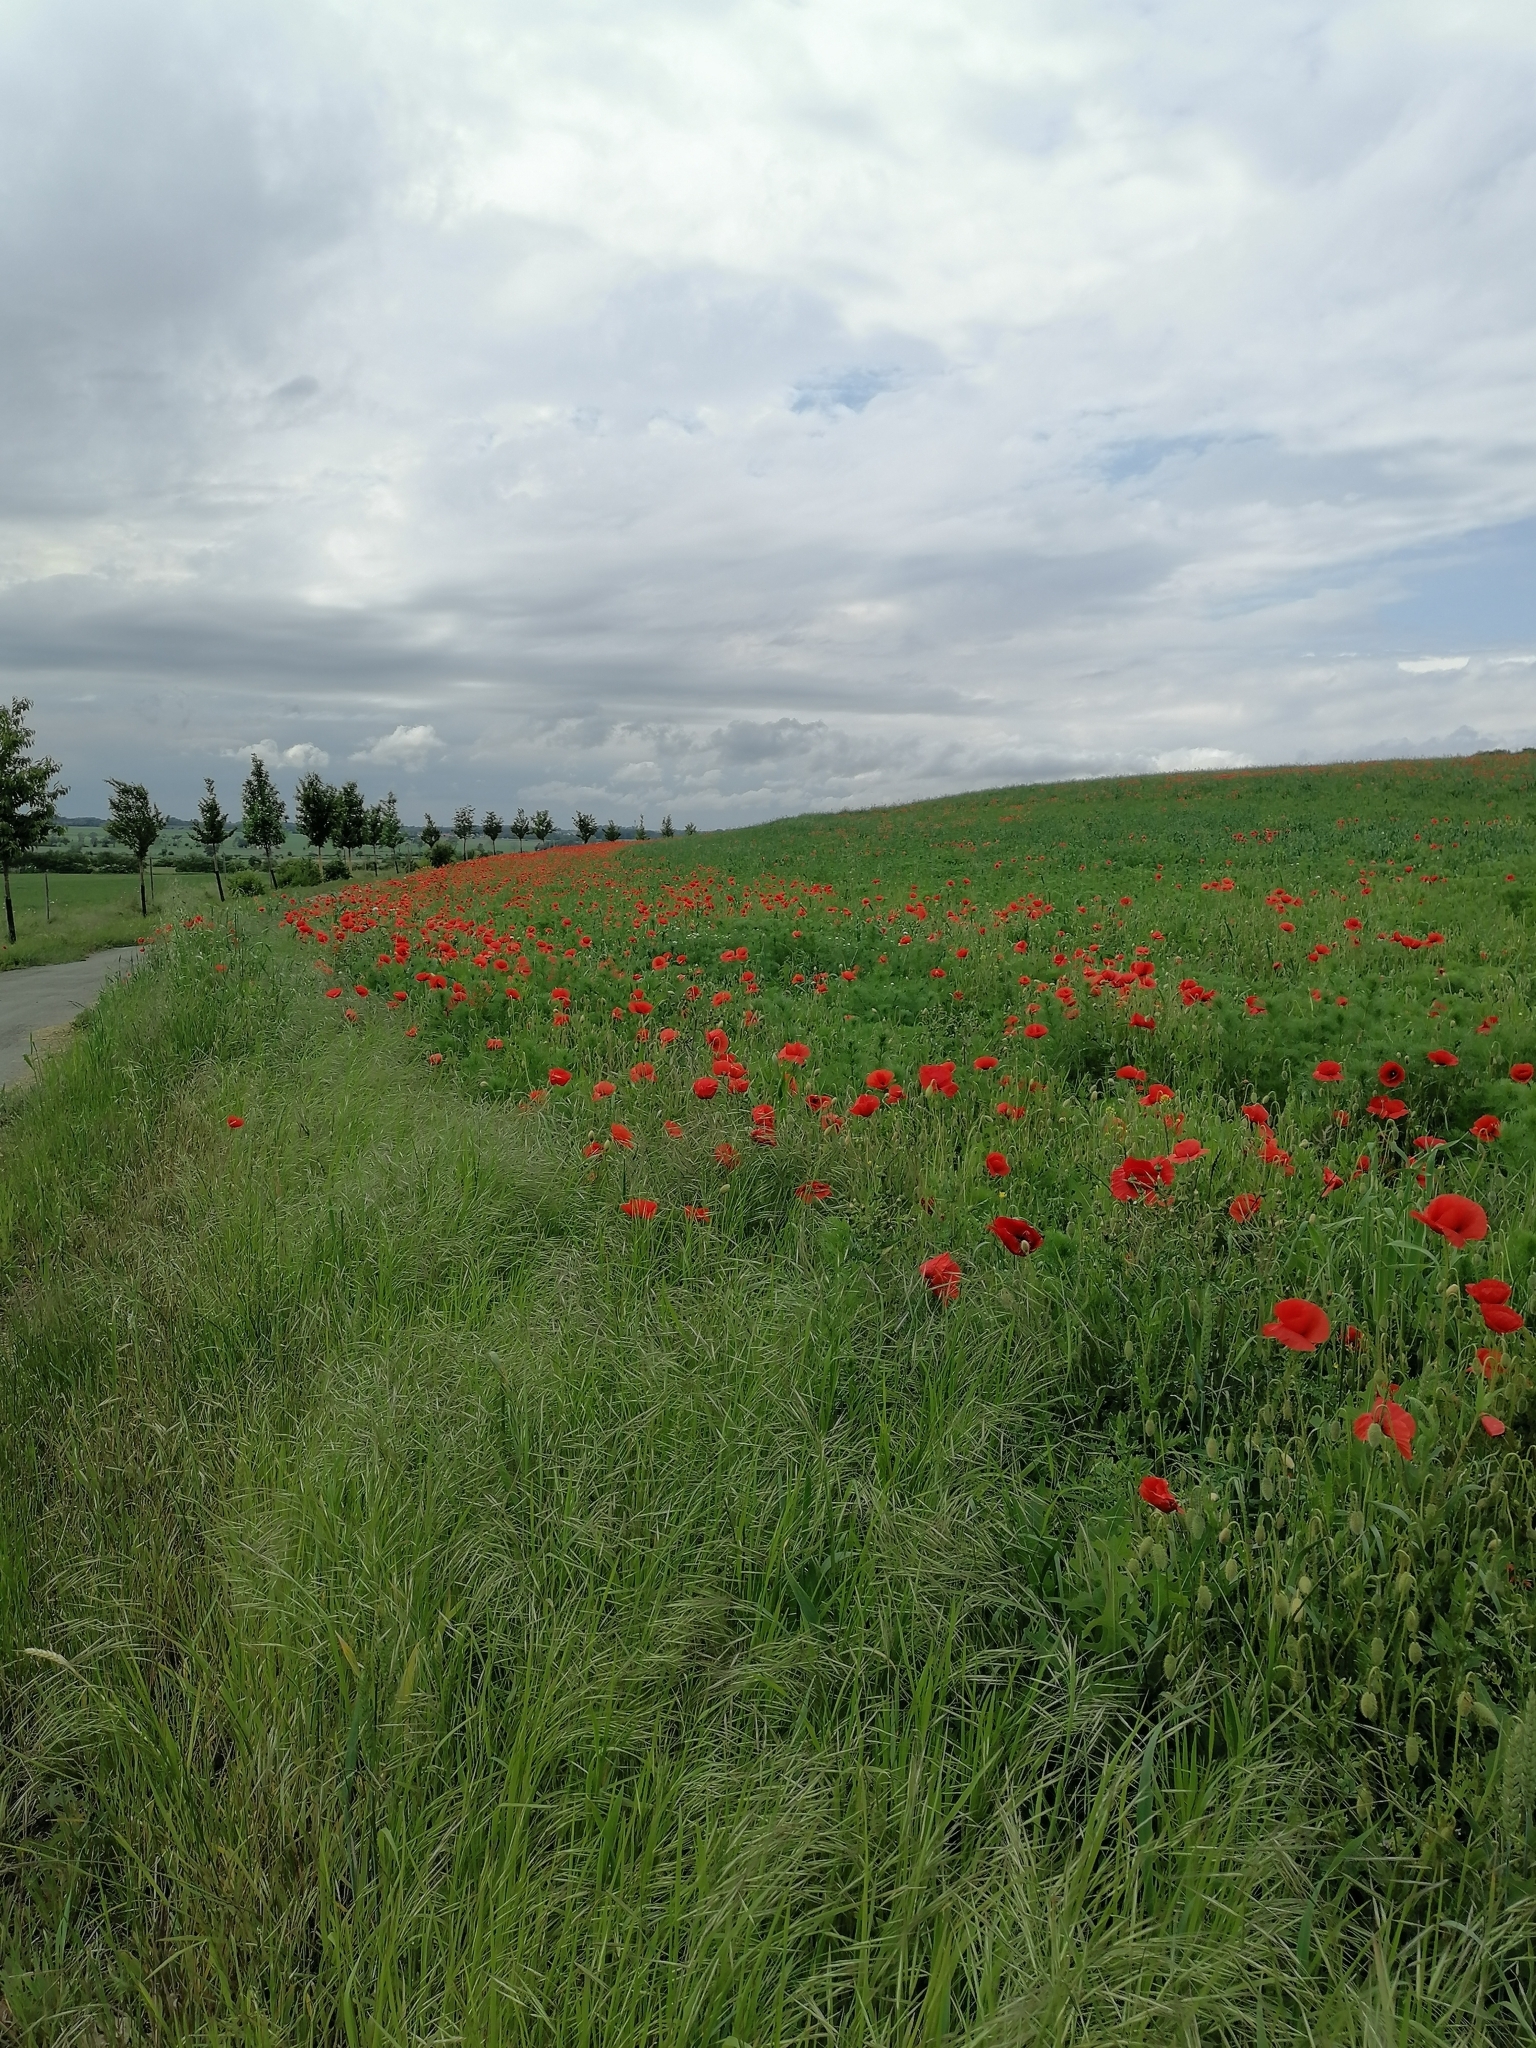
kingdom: Plantae
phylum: Tracheophyta
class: Magnoliopsida
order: Ranunculales
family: Papaveraceae
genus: Papaver
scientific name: Papaver rhoeas
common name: Corn poppy
